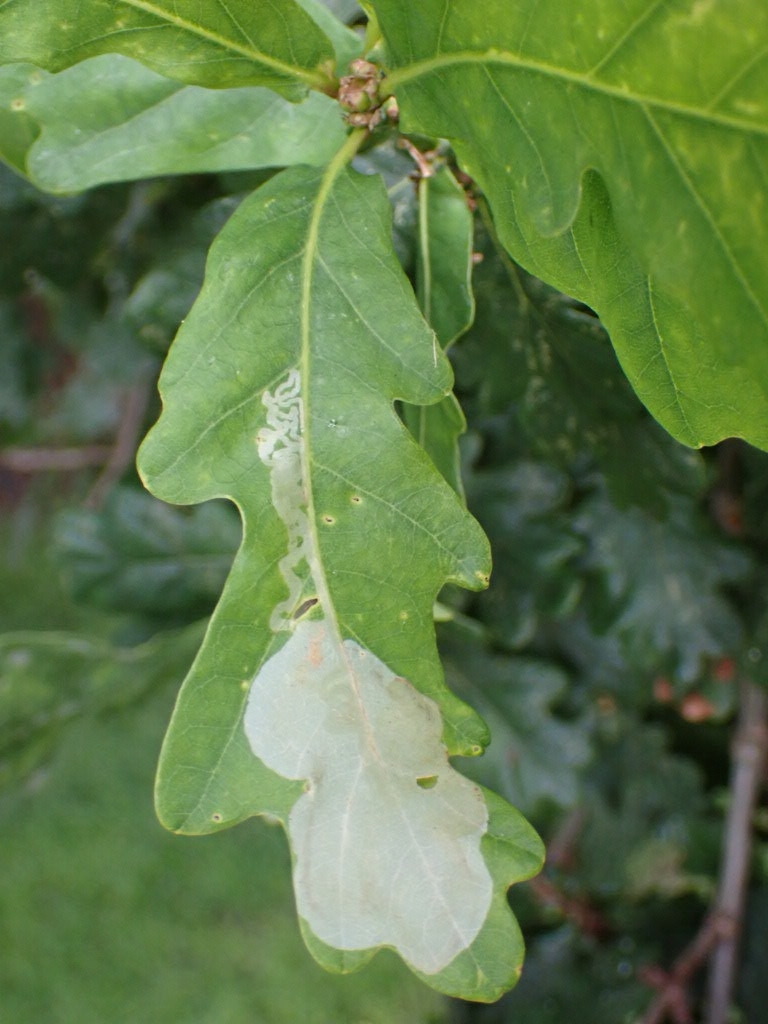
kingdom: Animalia
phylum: Arthropoda
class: Insecta
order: Lepidoptera
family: Gracillariidae
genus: Acrocercops
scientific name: Acrocercops brongniardella
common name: Brown oak slender
